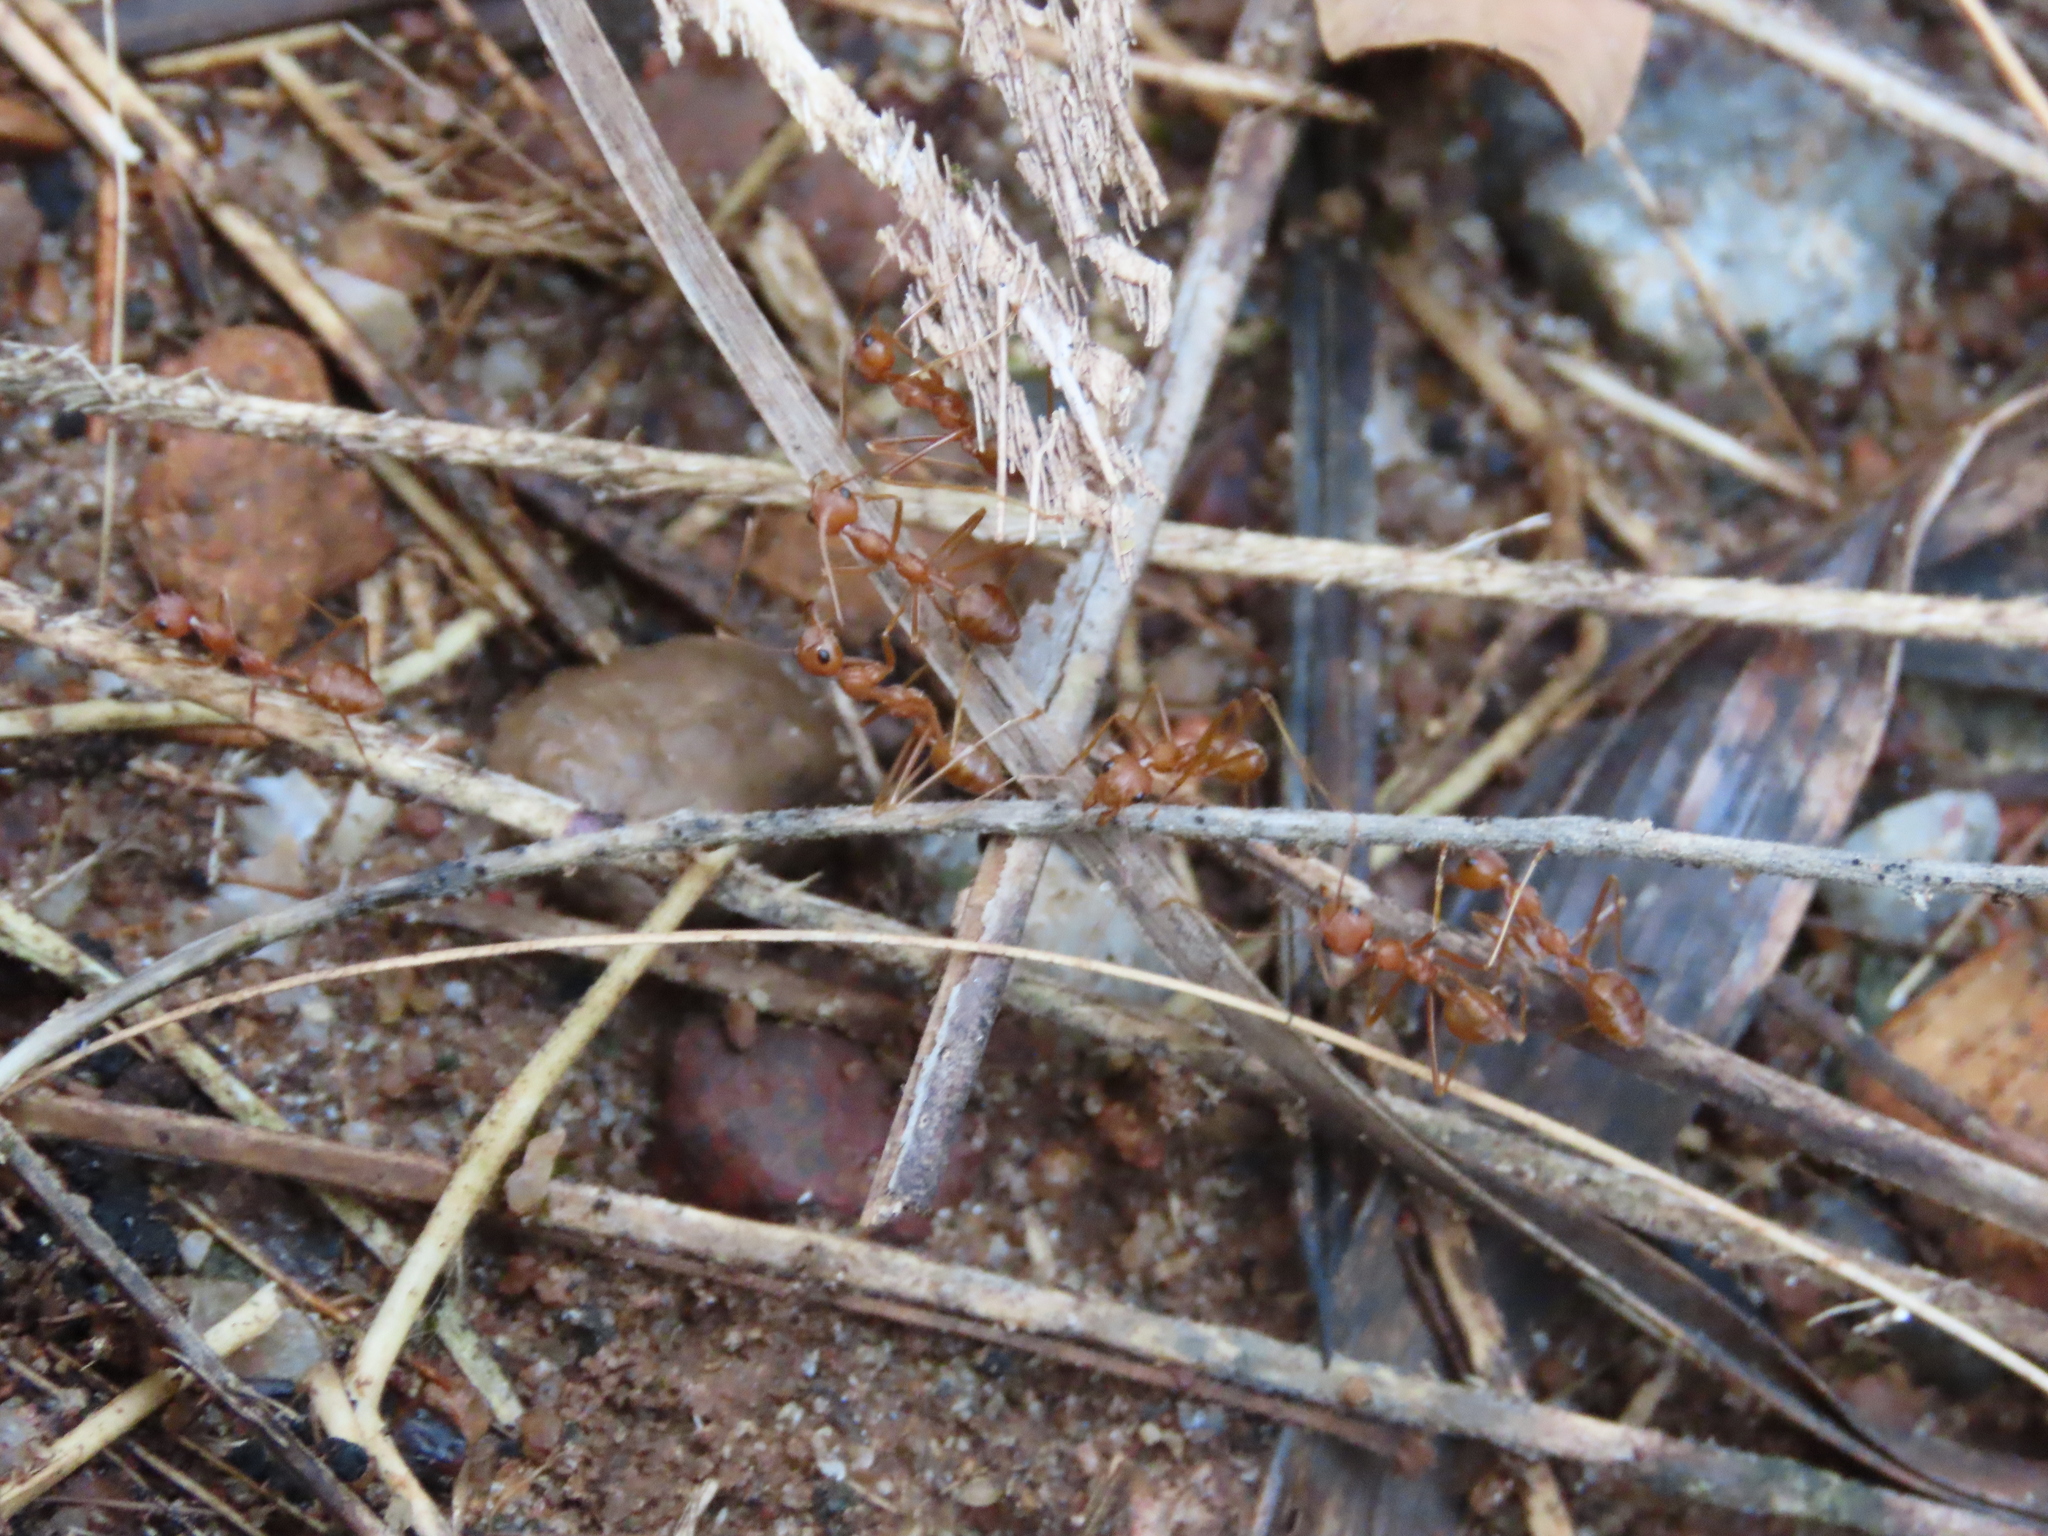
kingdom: Animalia
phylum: Arthropoda
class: Insecta
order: Hymenoptera
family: Formicidae
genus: Oecophylla
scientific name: Oecophylla smaragdina
